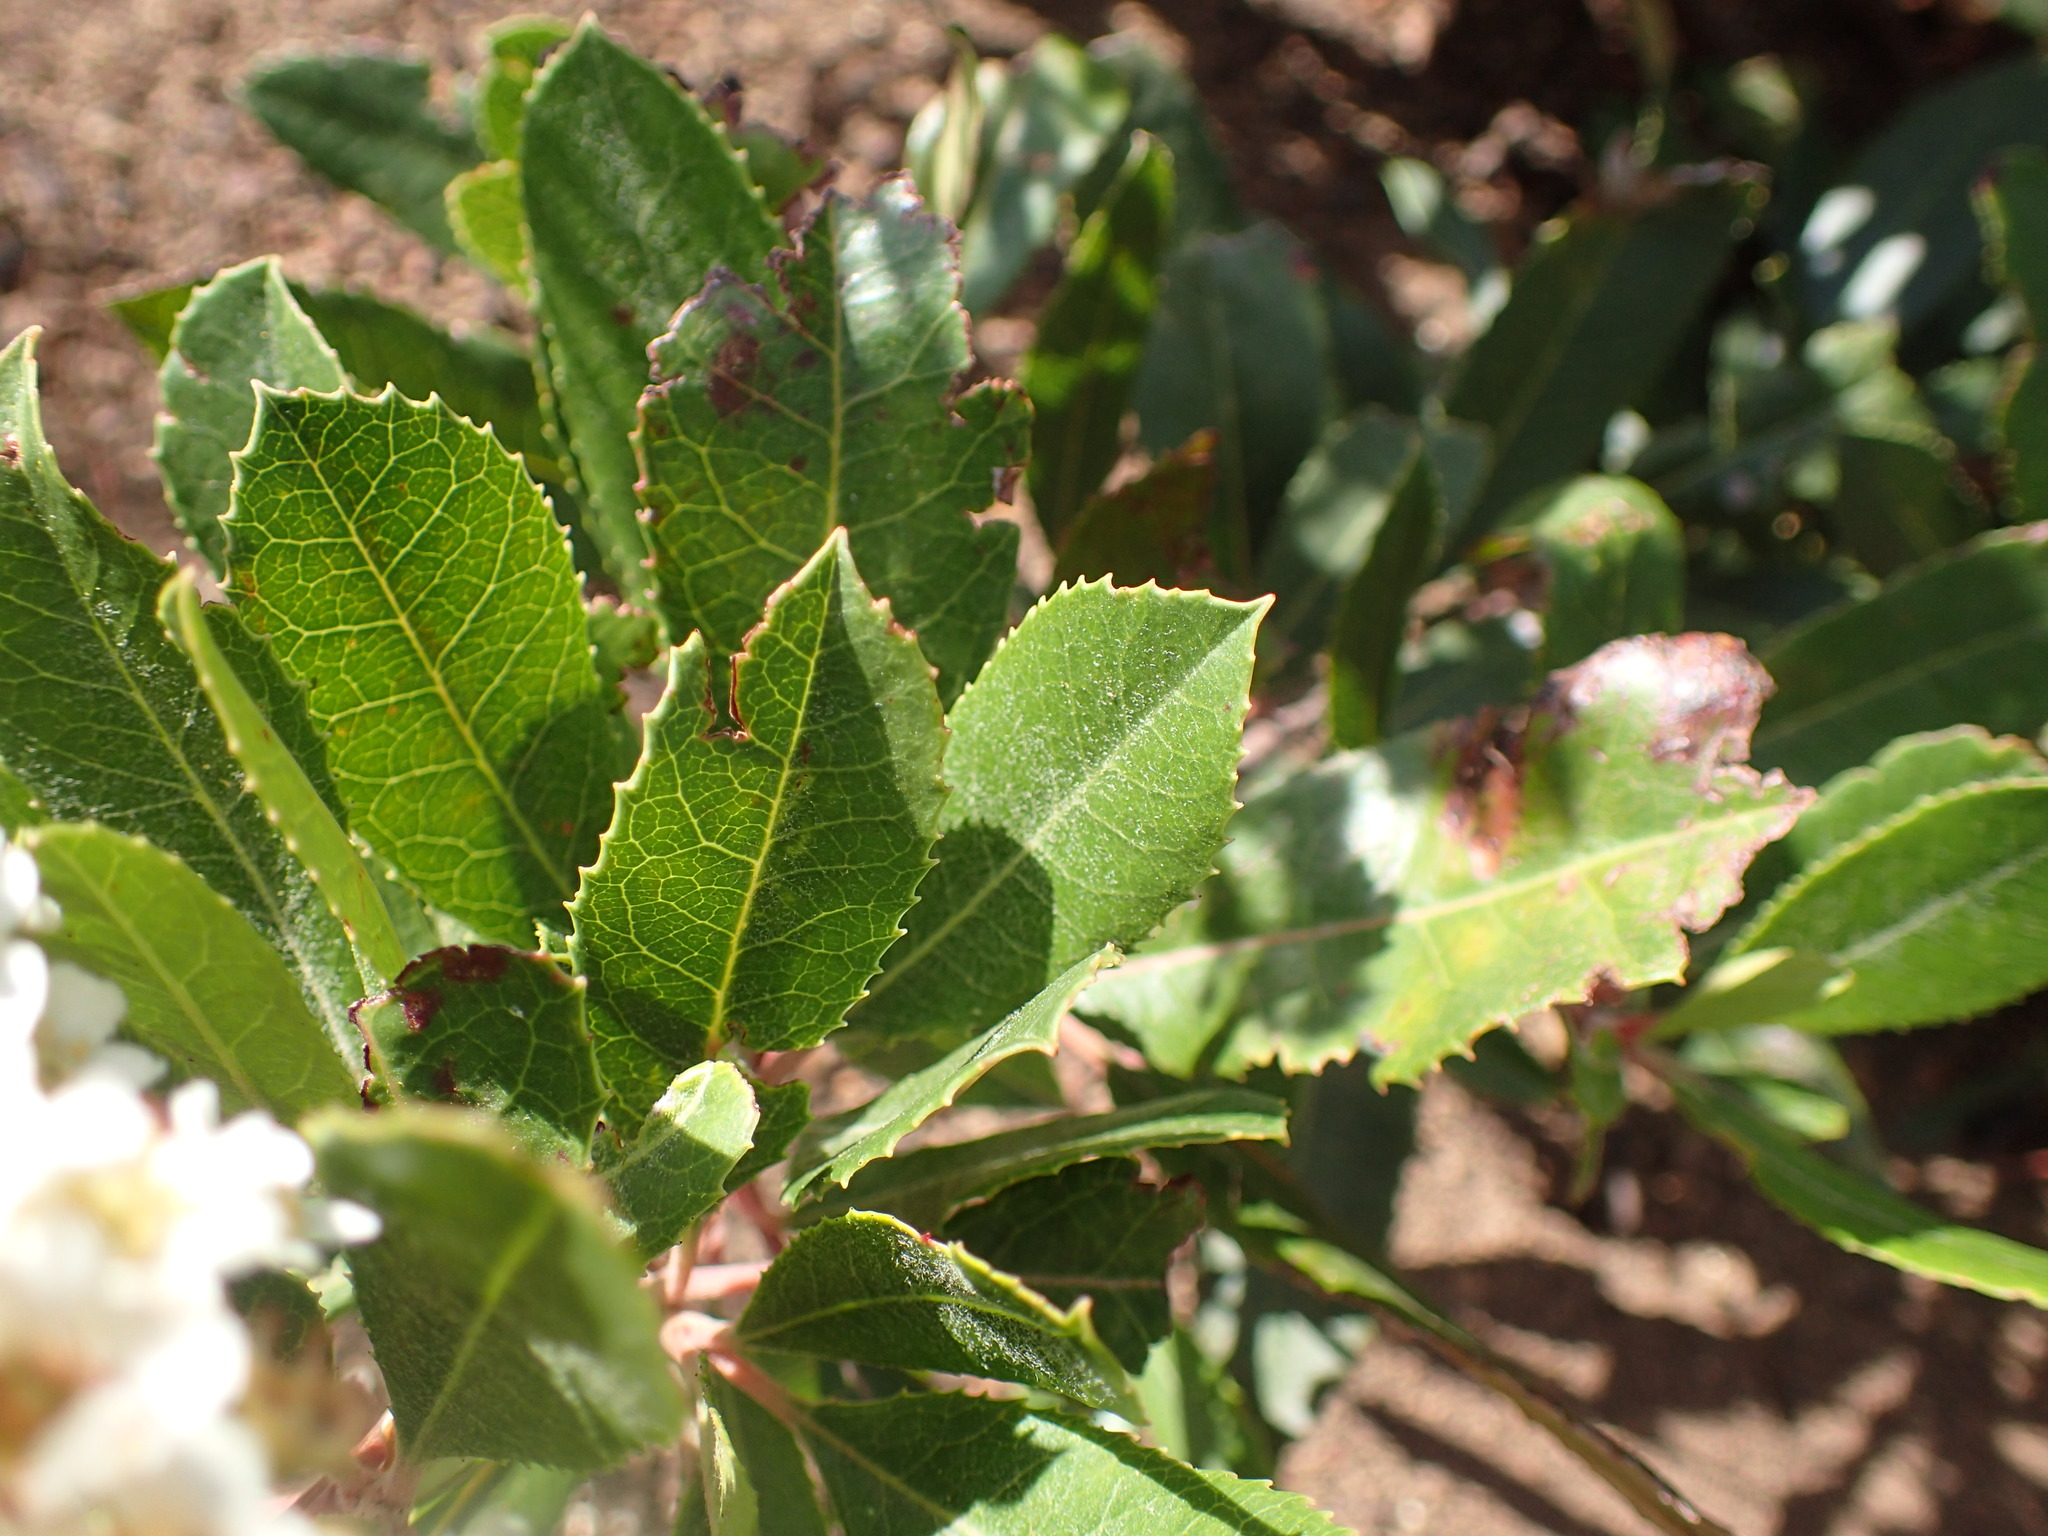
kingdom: Plantae
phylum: Tracheophyta
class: Magnoliopsida
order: Rosales
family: Rosaceae
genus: Heteromeles
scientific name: Heteromeles arbutifolia
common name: California-holly
